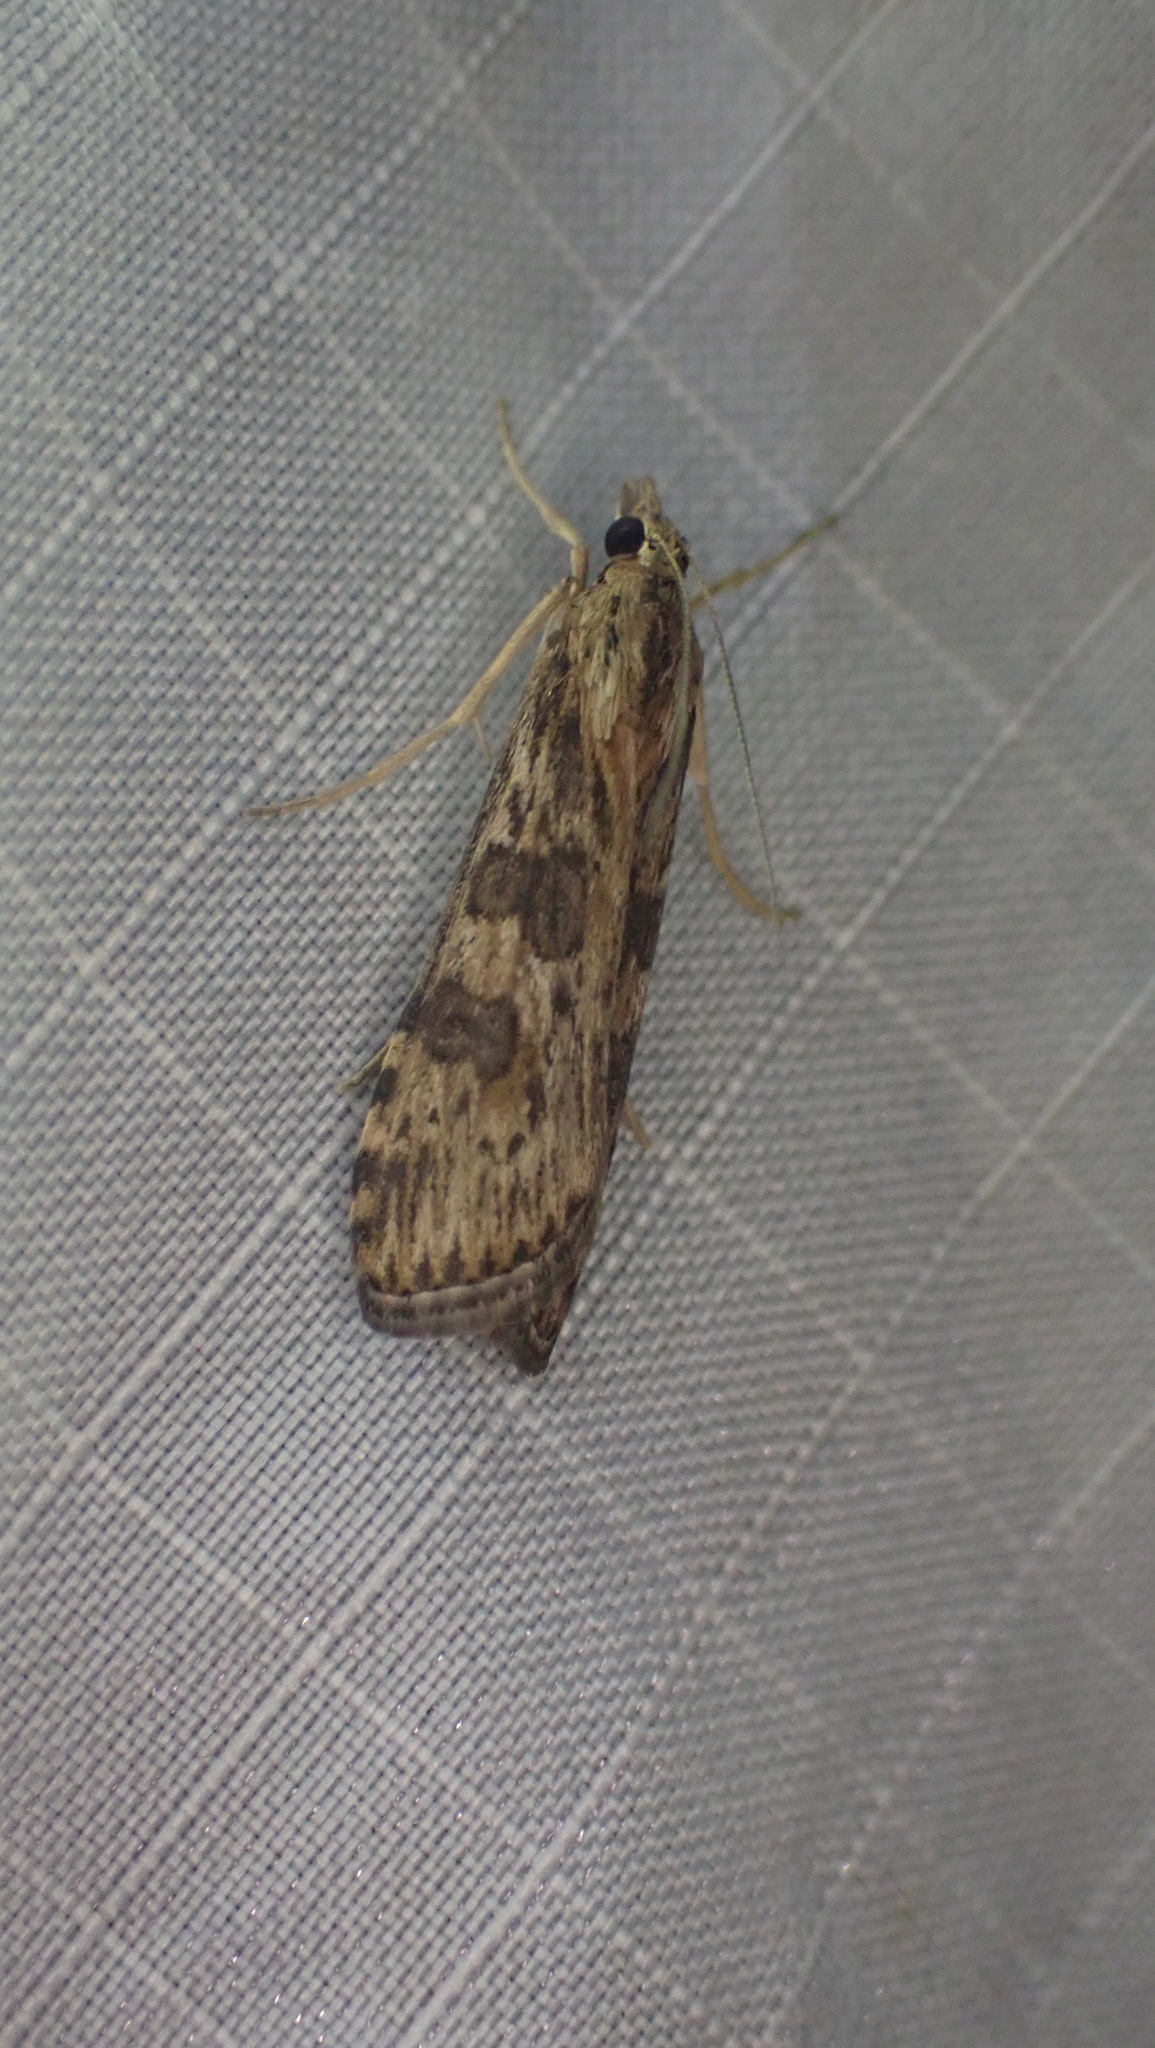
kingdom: Animalia
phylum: Arthropoda
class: Insecta
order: Lepidoptera
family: Crambidae
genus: Nomophila
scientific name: Nomophila nearctica
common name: American rush veneer
